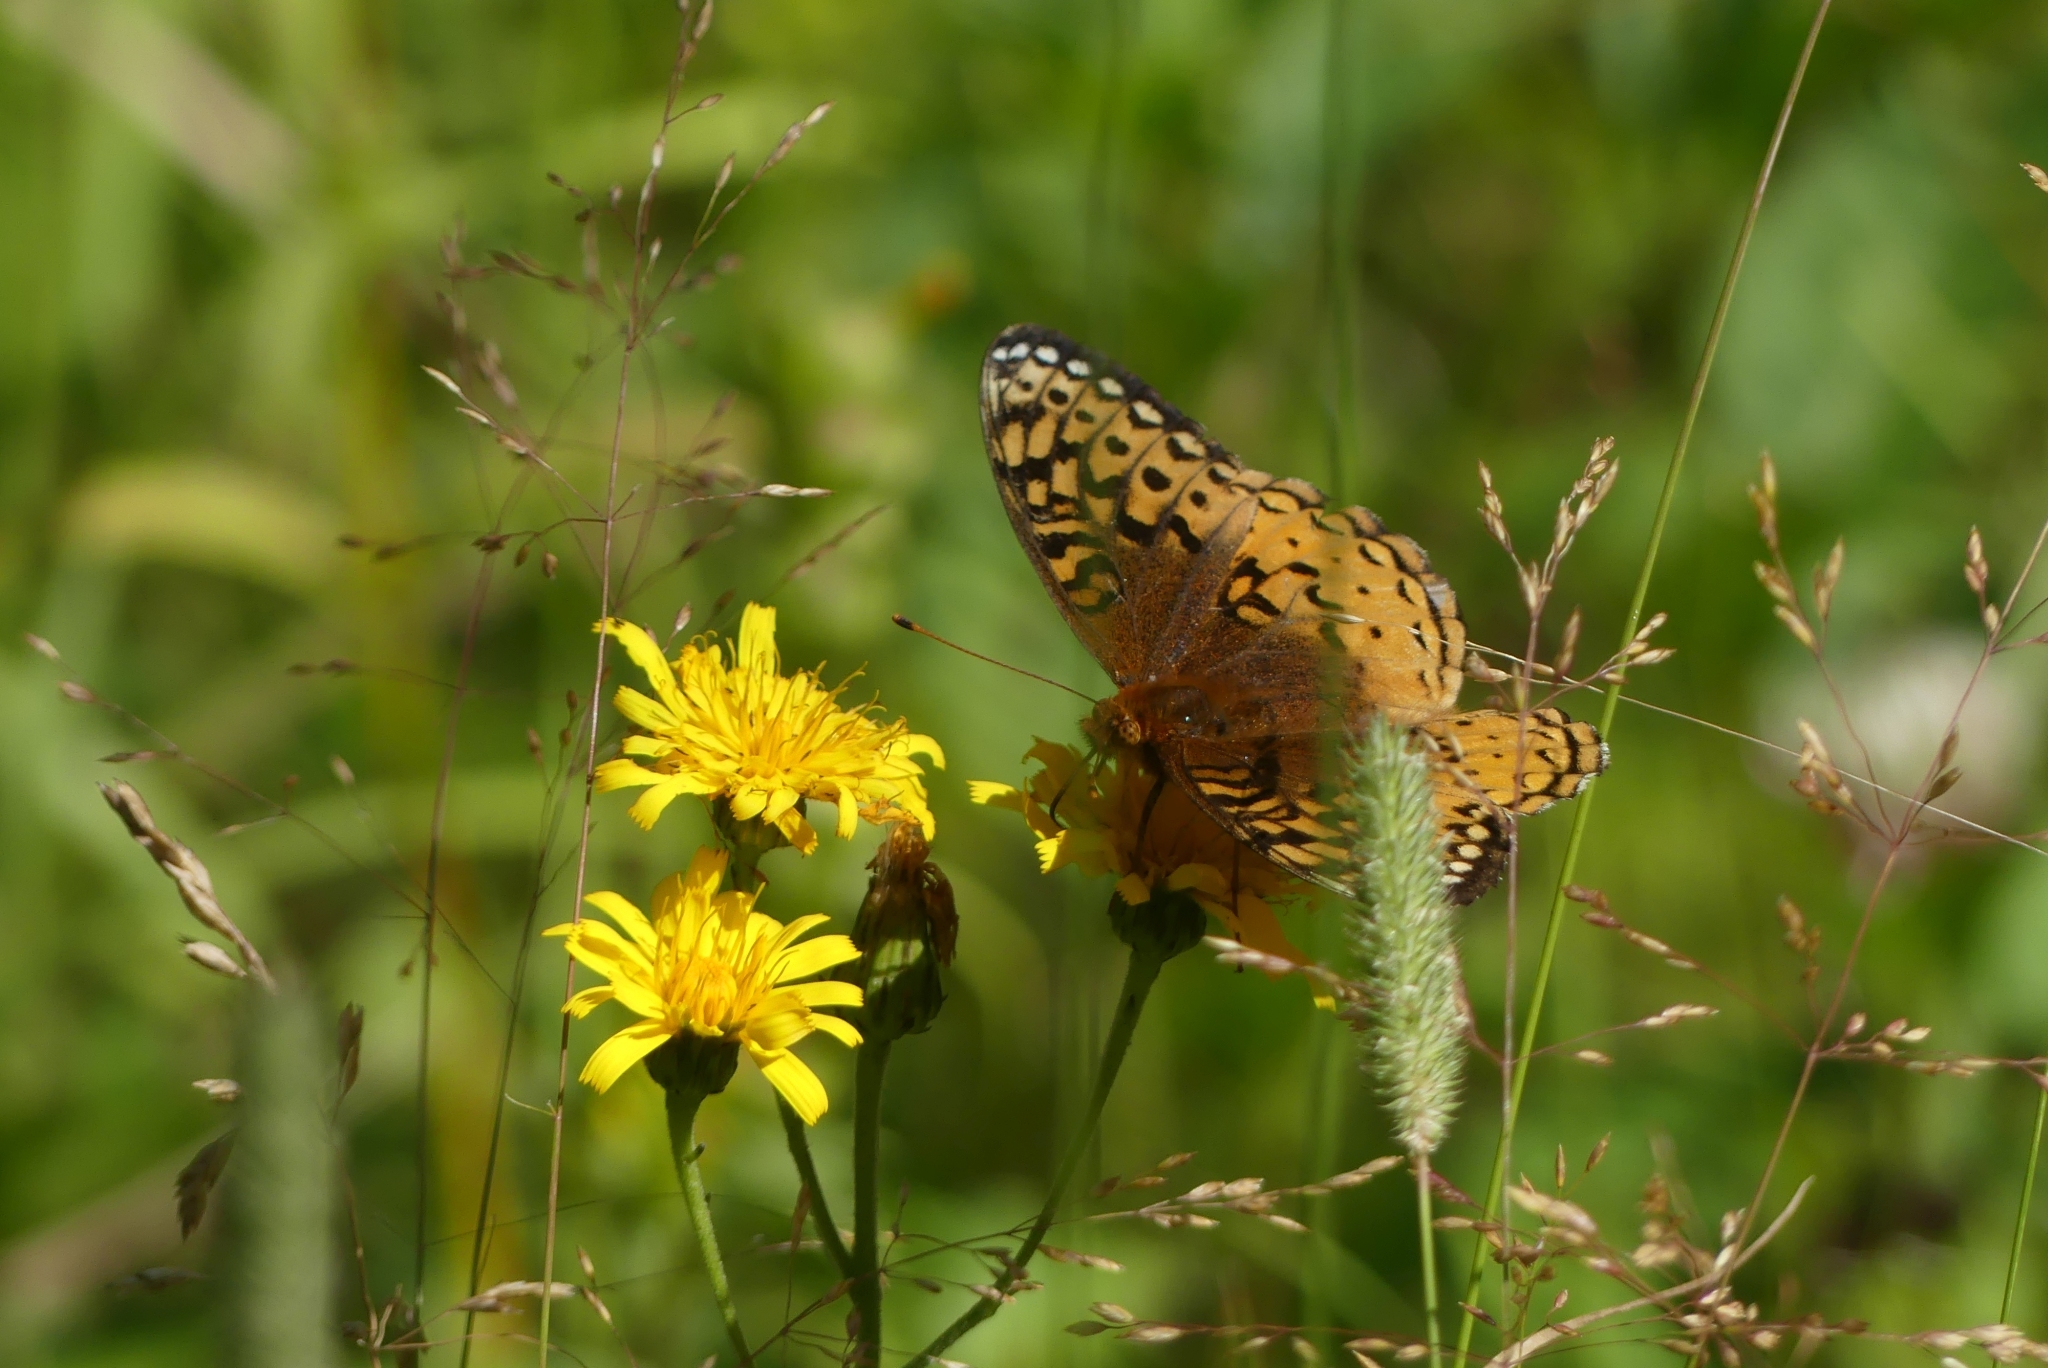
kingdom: Animalia
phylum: Arthropoda
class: Insecta
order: Lepidoptera
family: Nymphalidae
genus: Speyeria
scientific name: Speyeria cybele
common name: Great spangled fritillary
